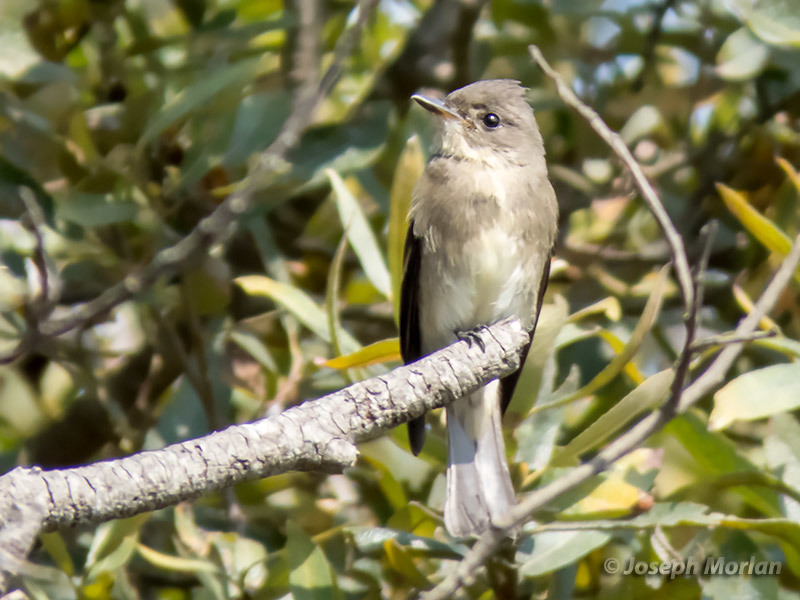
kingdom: Animalia
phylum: Chordata
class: Aves
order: Passeriformes
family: Tyrannidae
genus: Contopus
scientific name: Contopus sordidulus
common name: Western wood-pewee
